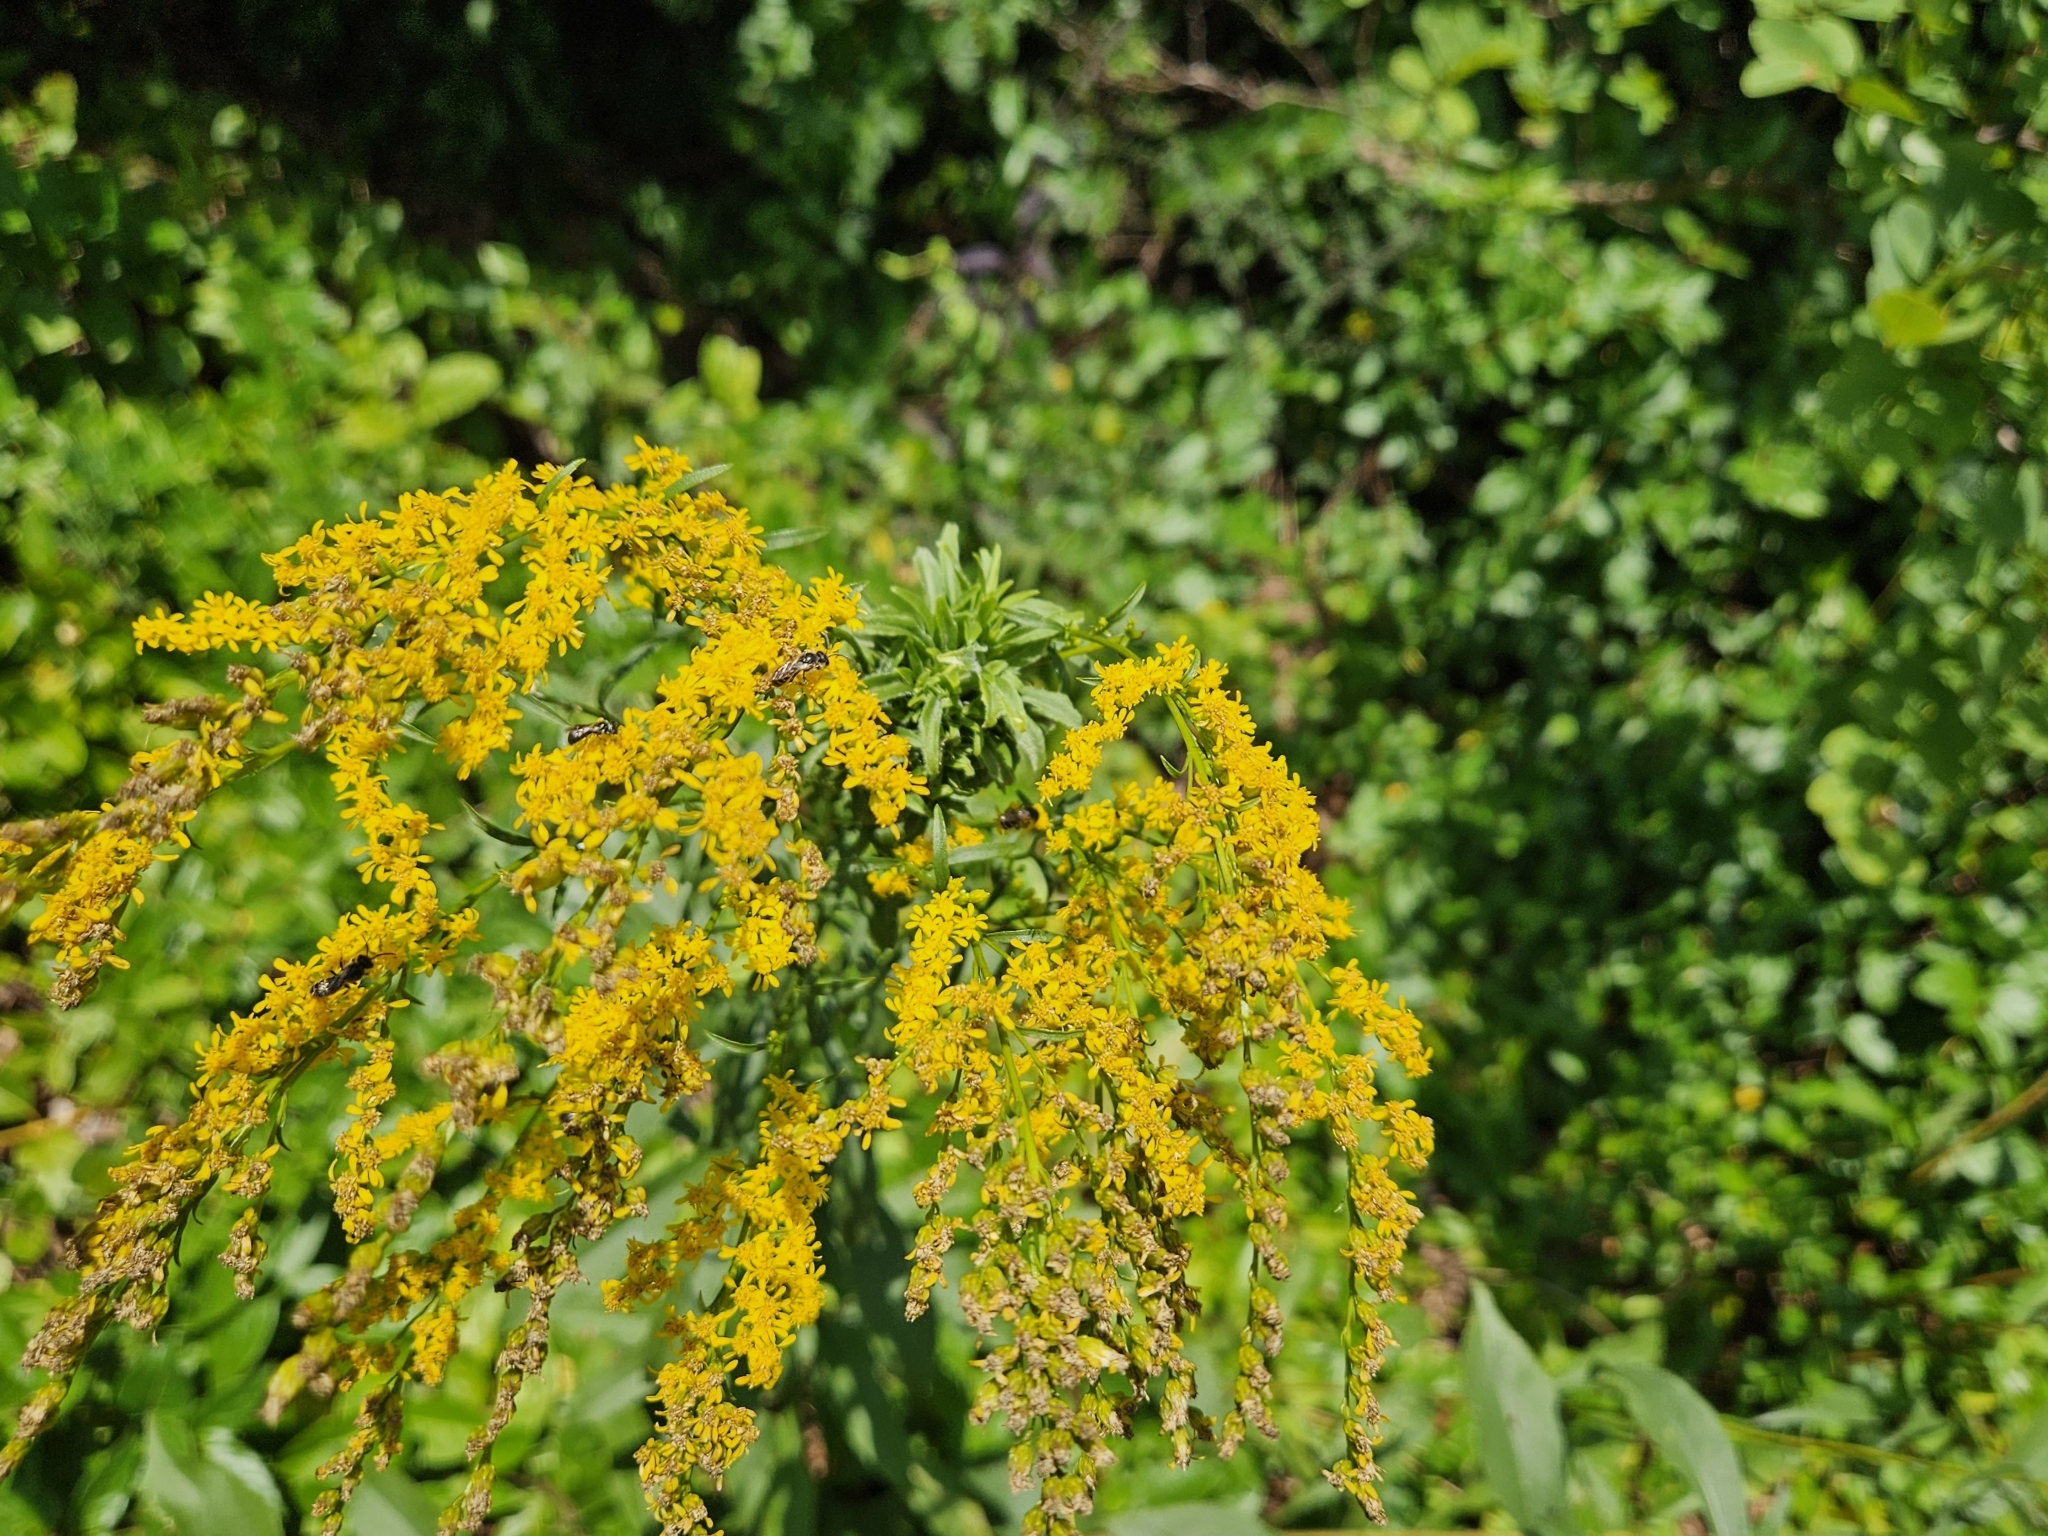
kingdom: Plantae
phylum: Tracheophyta
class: Magnoliopsida
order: Asterales
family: Asteraceae
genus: Solidago
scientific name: Solidago juncea
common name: Early goldenrod
